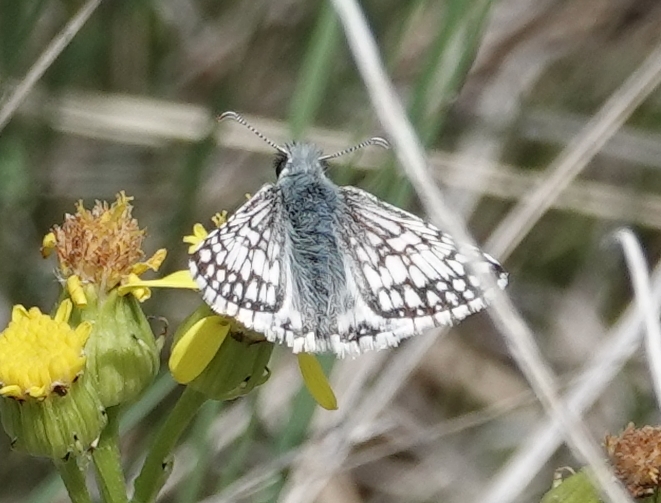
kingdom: Animalia
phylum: Arthropoda
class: Insecta
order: Lepidoptera
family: Hesperiidae
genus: Burnsius
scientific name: Burnsius communis
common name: Common checkered-skipper
